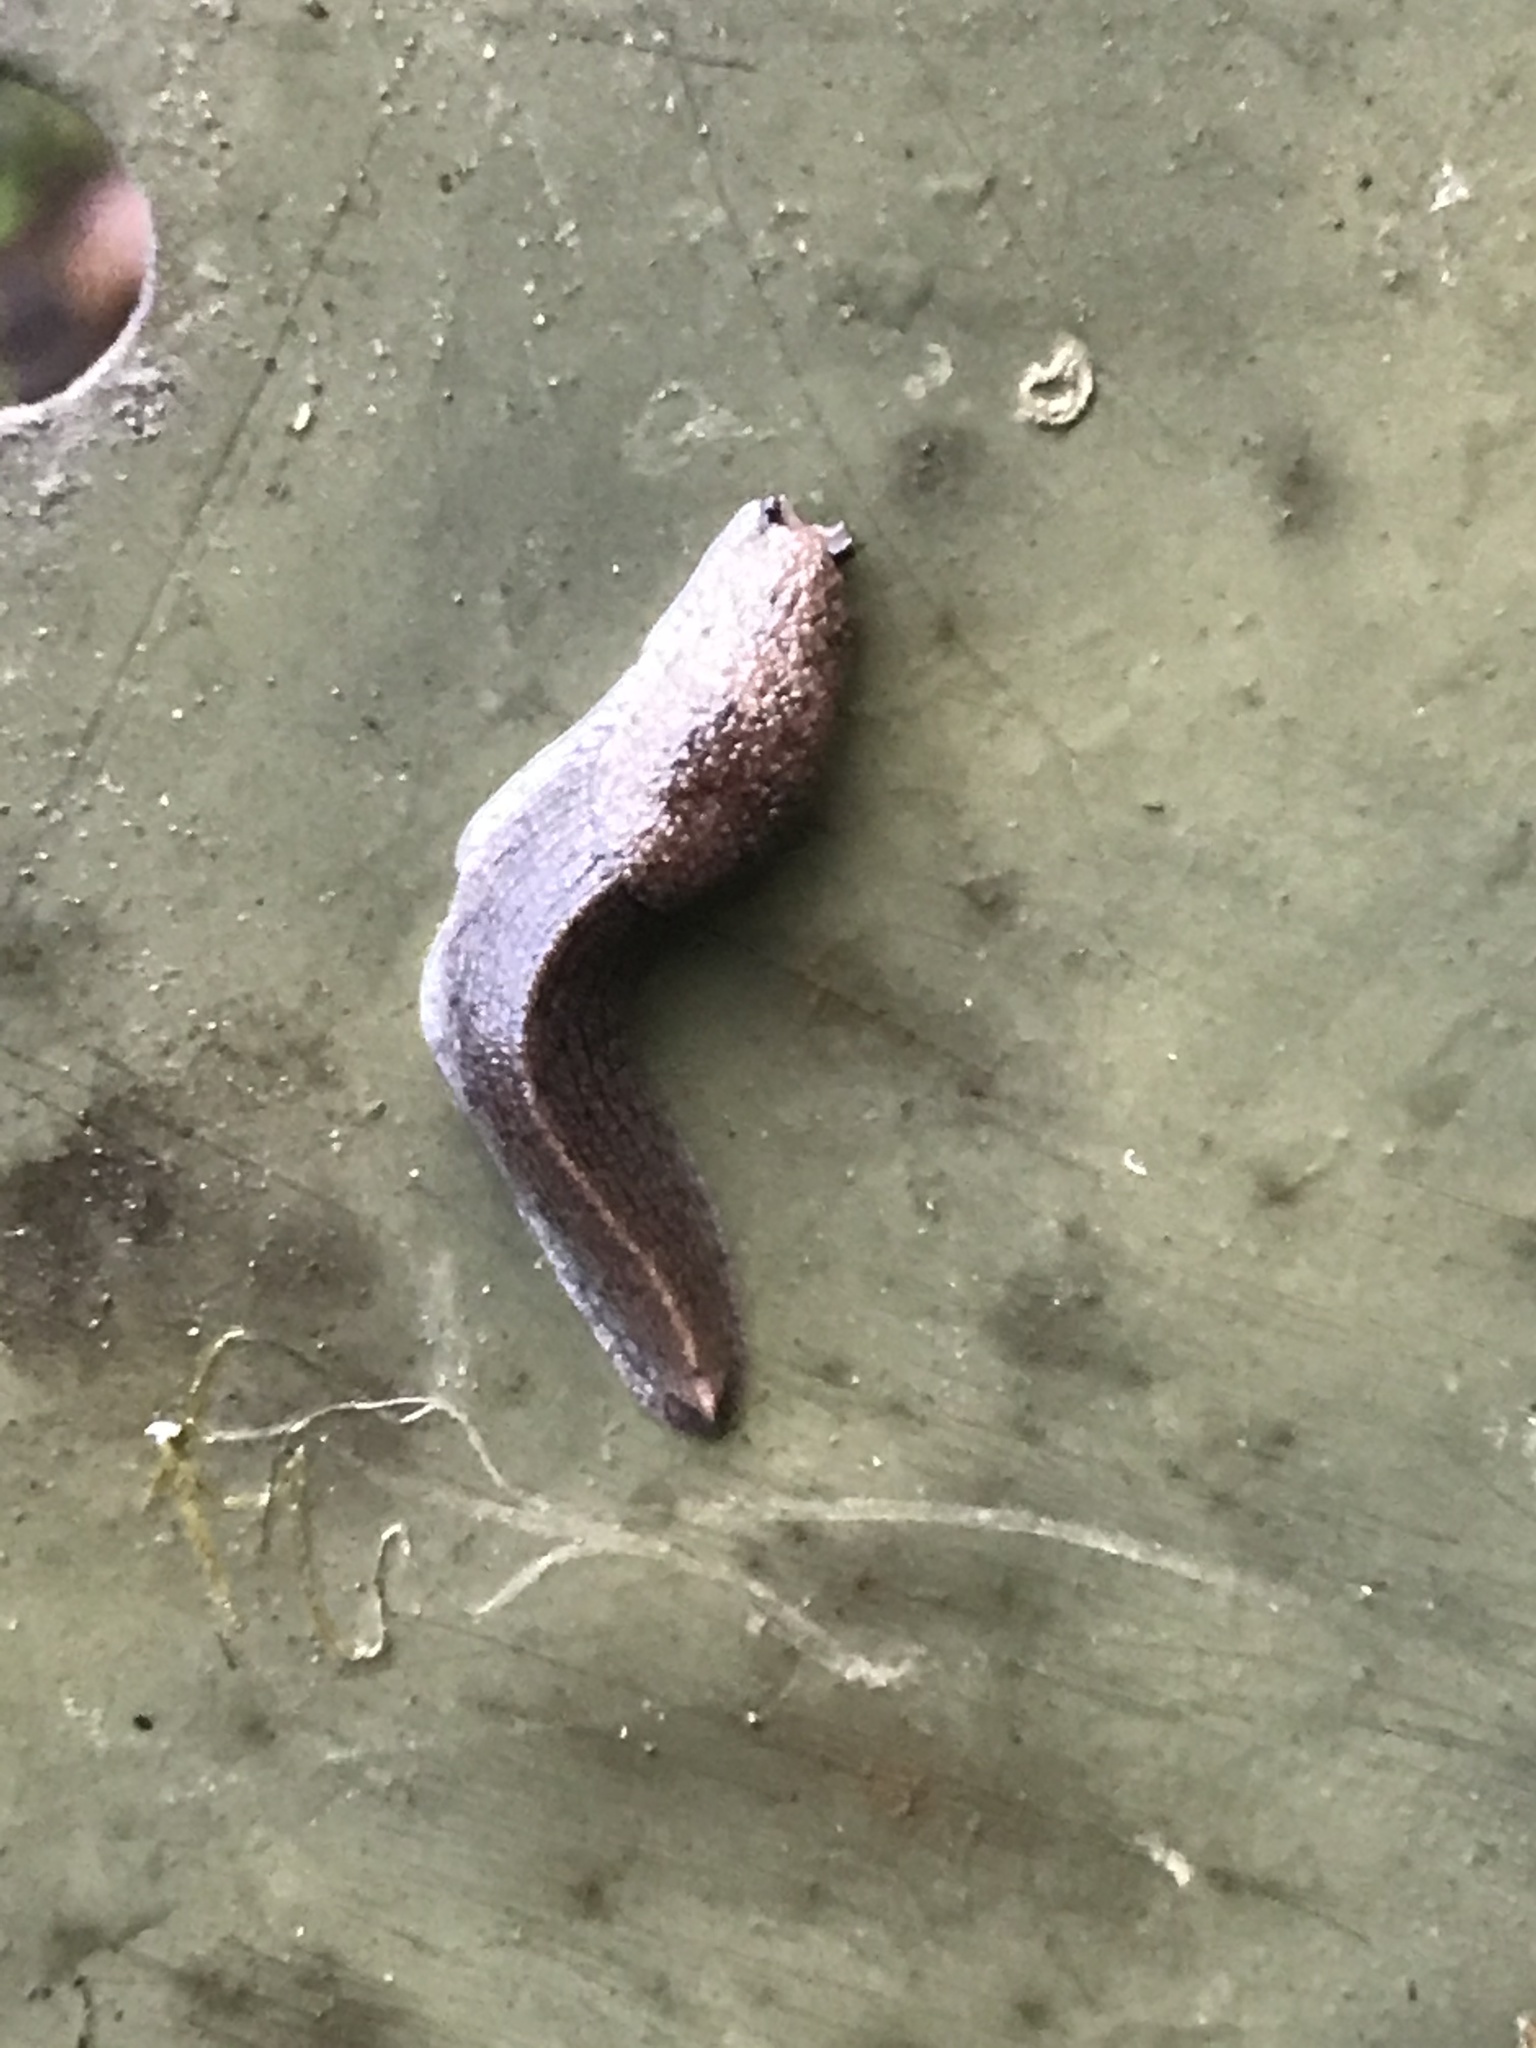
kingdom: Animalia
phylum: Mollusca
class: Gastropoda
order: Stylommatophora
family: Ariolimacidae
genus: Hesperarion
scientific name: Hesperarion niger
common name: Black western slug
